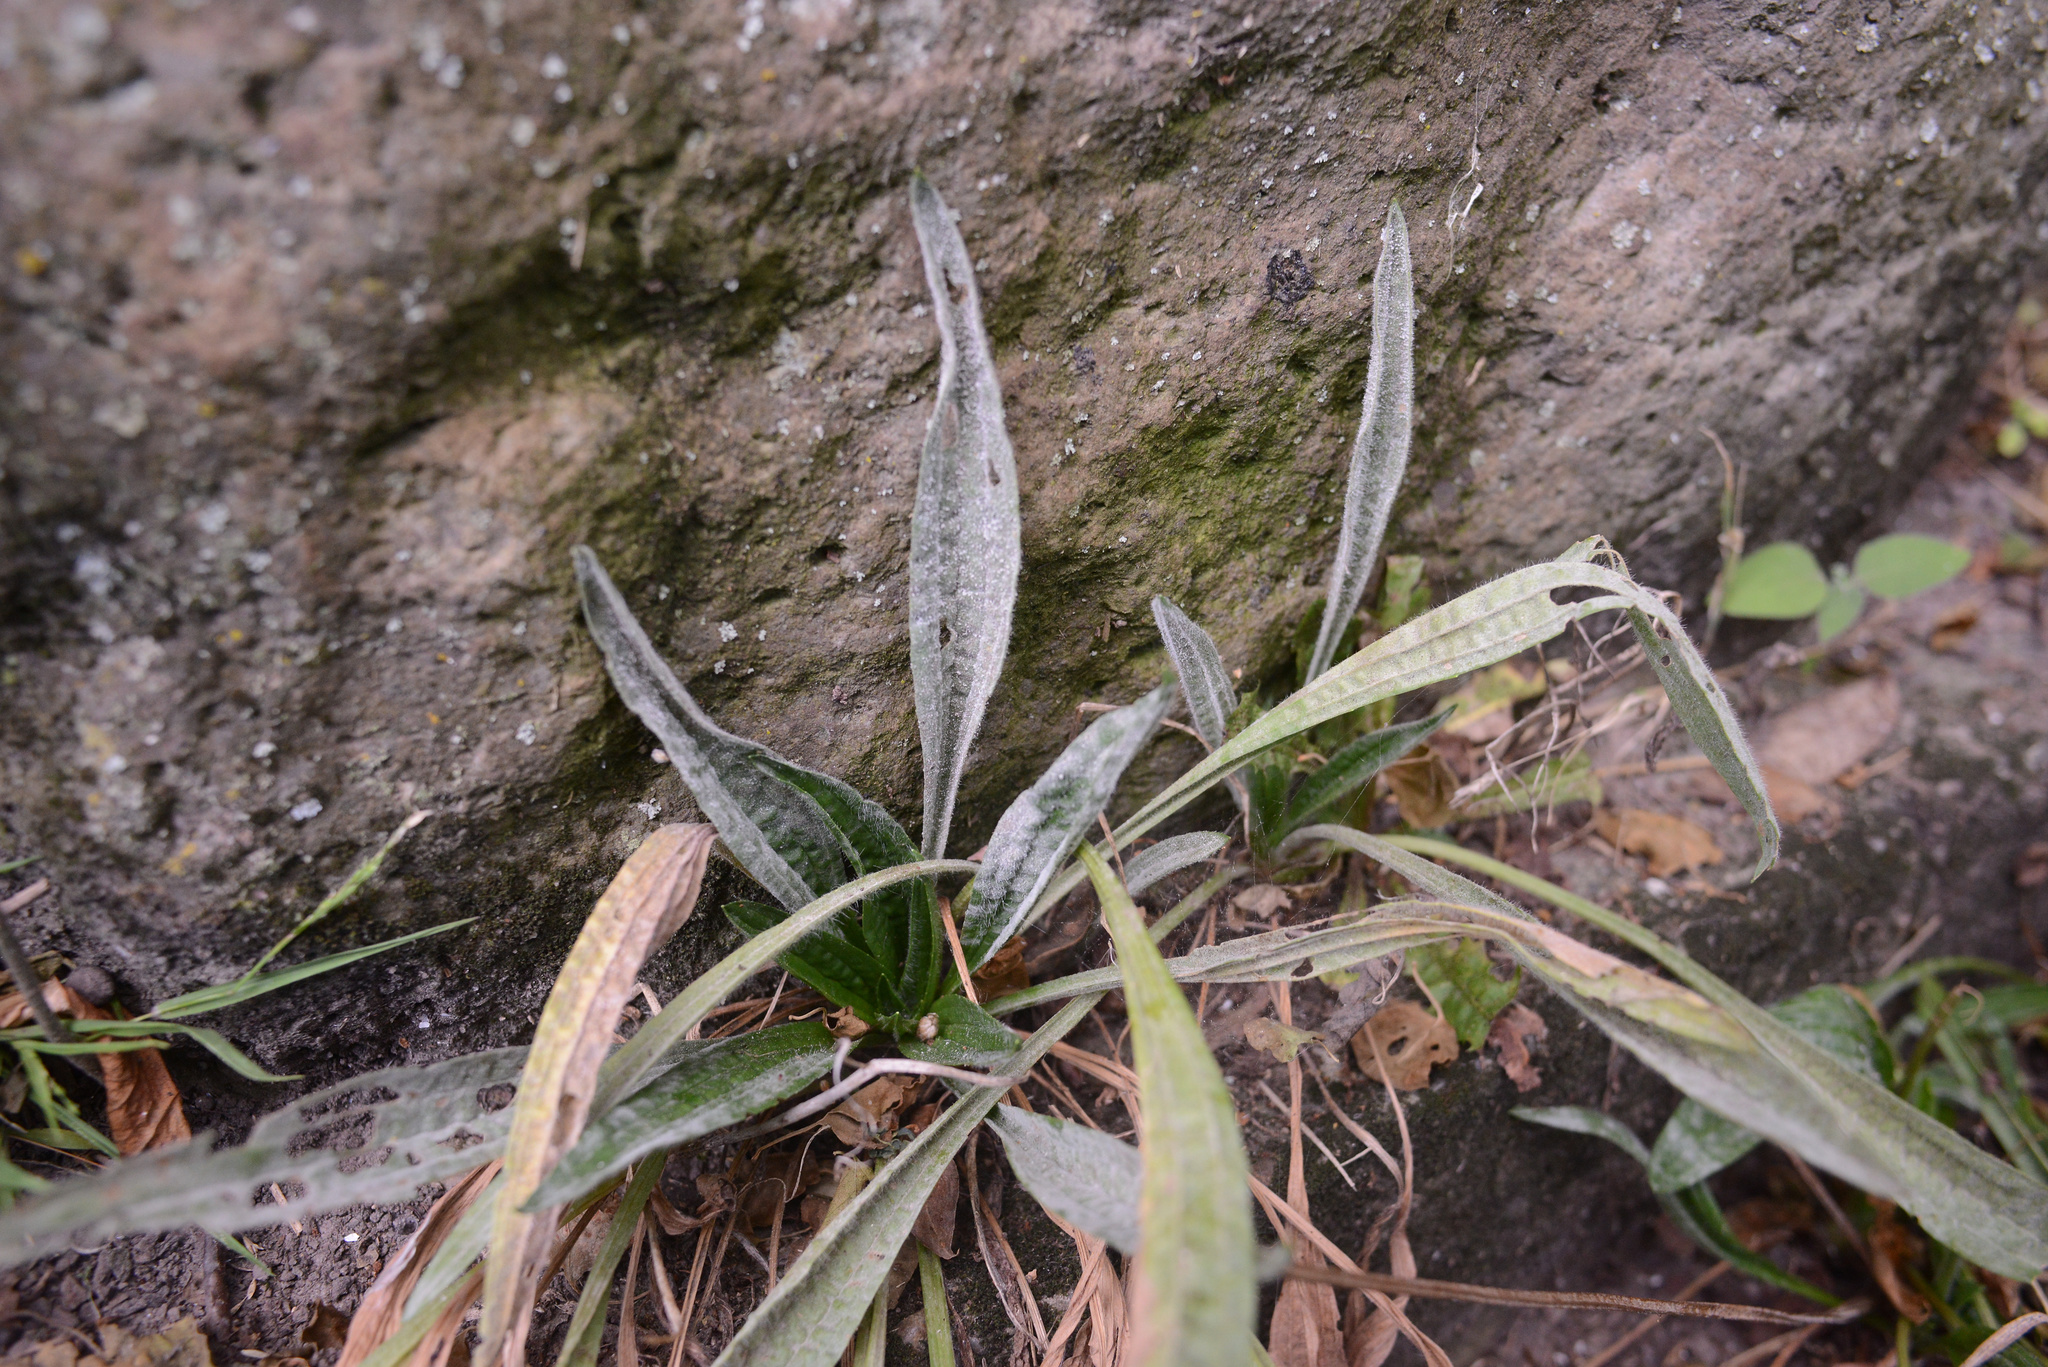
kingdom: Plantae
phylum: Tracheophyta
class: Magnoliopsida
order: Lamiales
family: Plantaginaceae
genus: Plantago
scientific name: Plantago lanceolata
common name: Ribwort plantain
